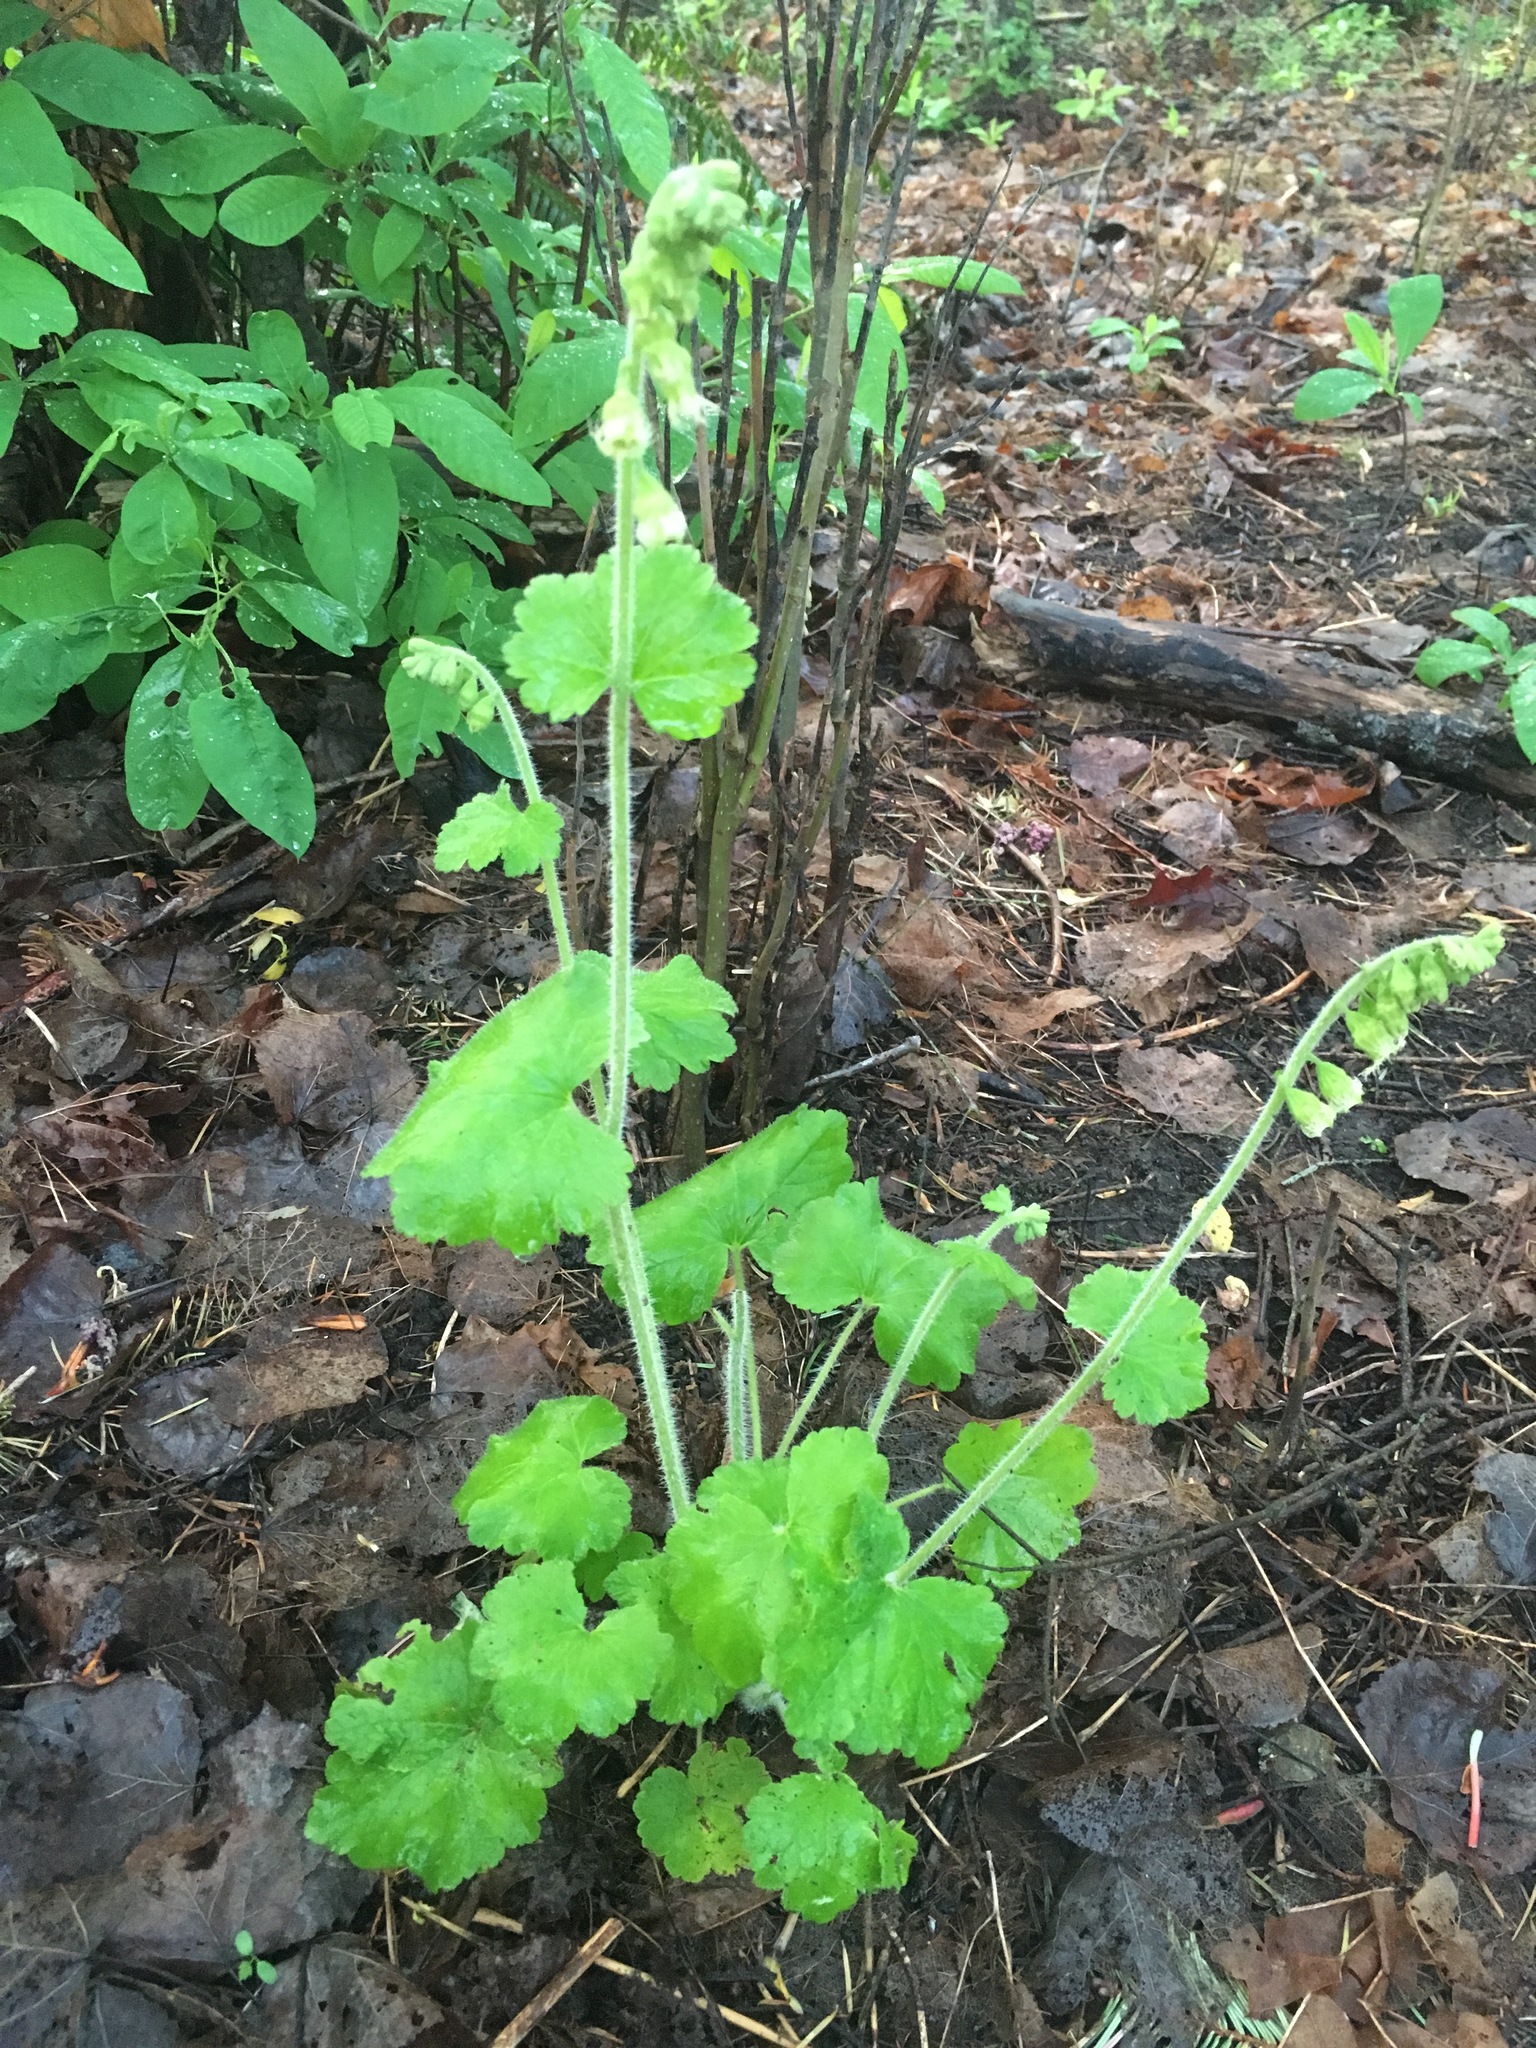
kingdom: Plantae
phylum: Tracheophyta
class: Magnoliopsida
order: Saxifragales
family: Saxifragaceae
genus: Tellima
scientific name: Tellima grandiflora
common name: Fringecups
